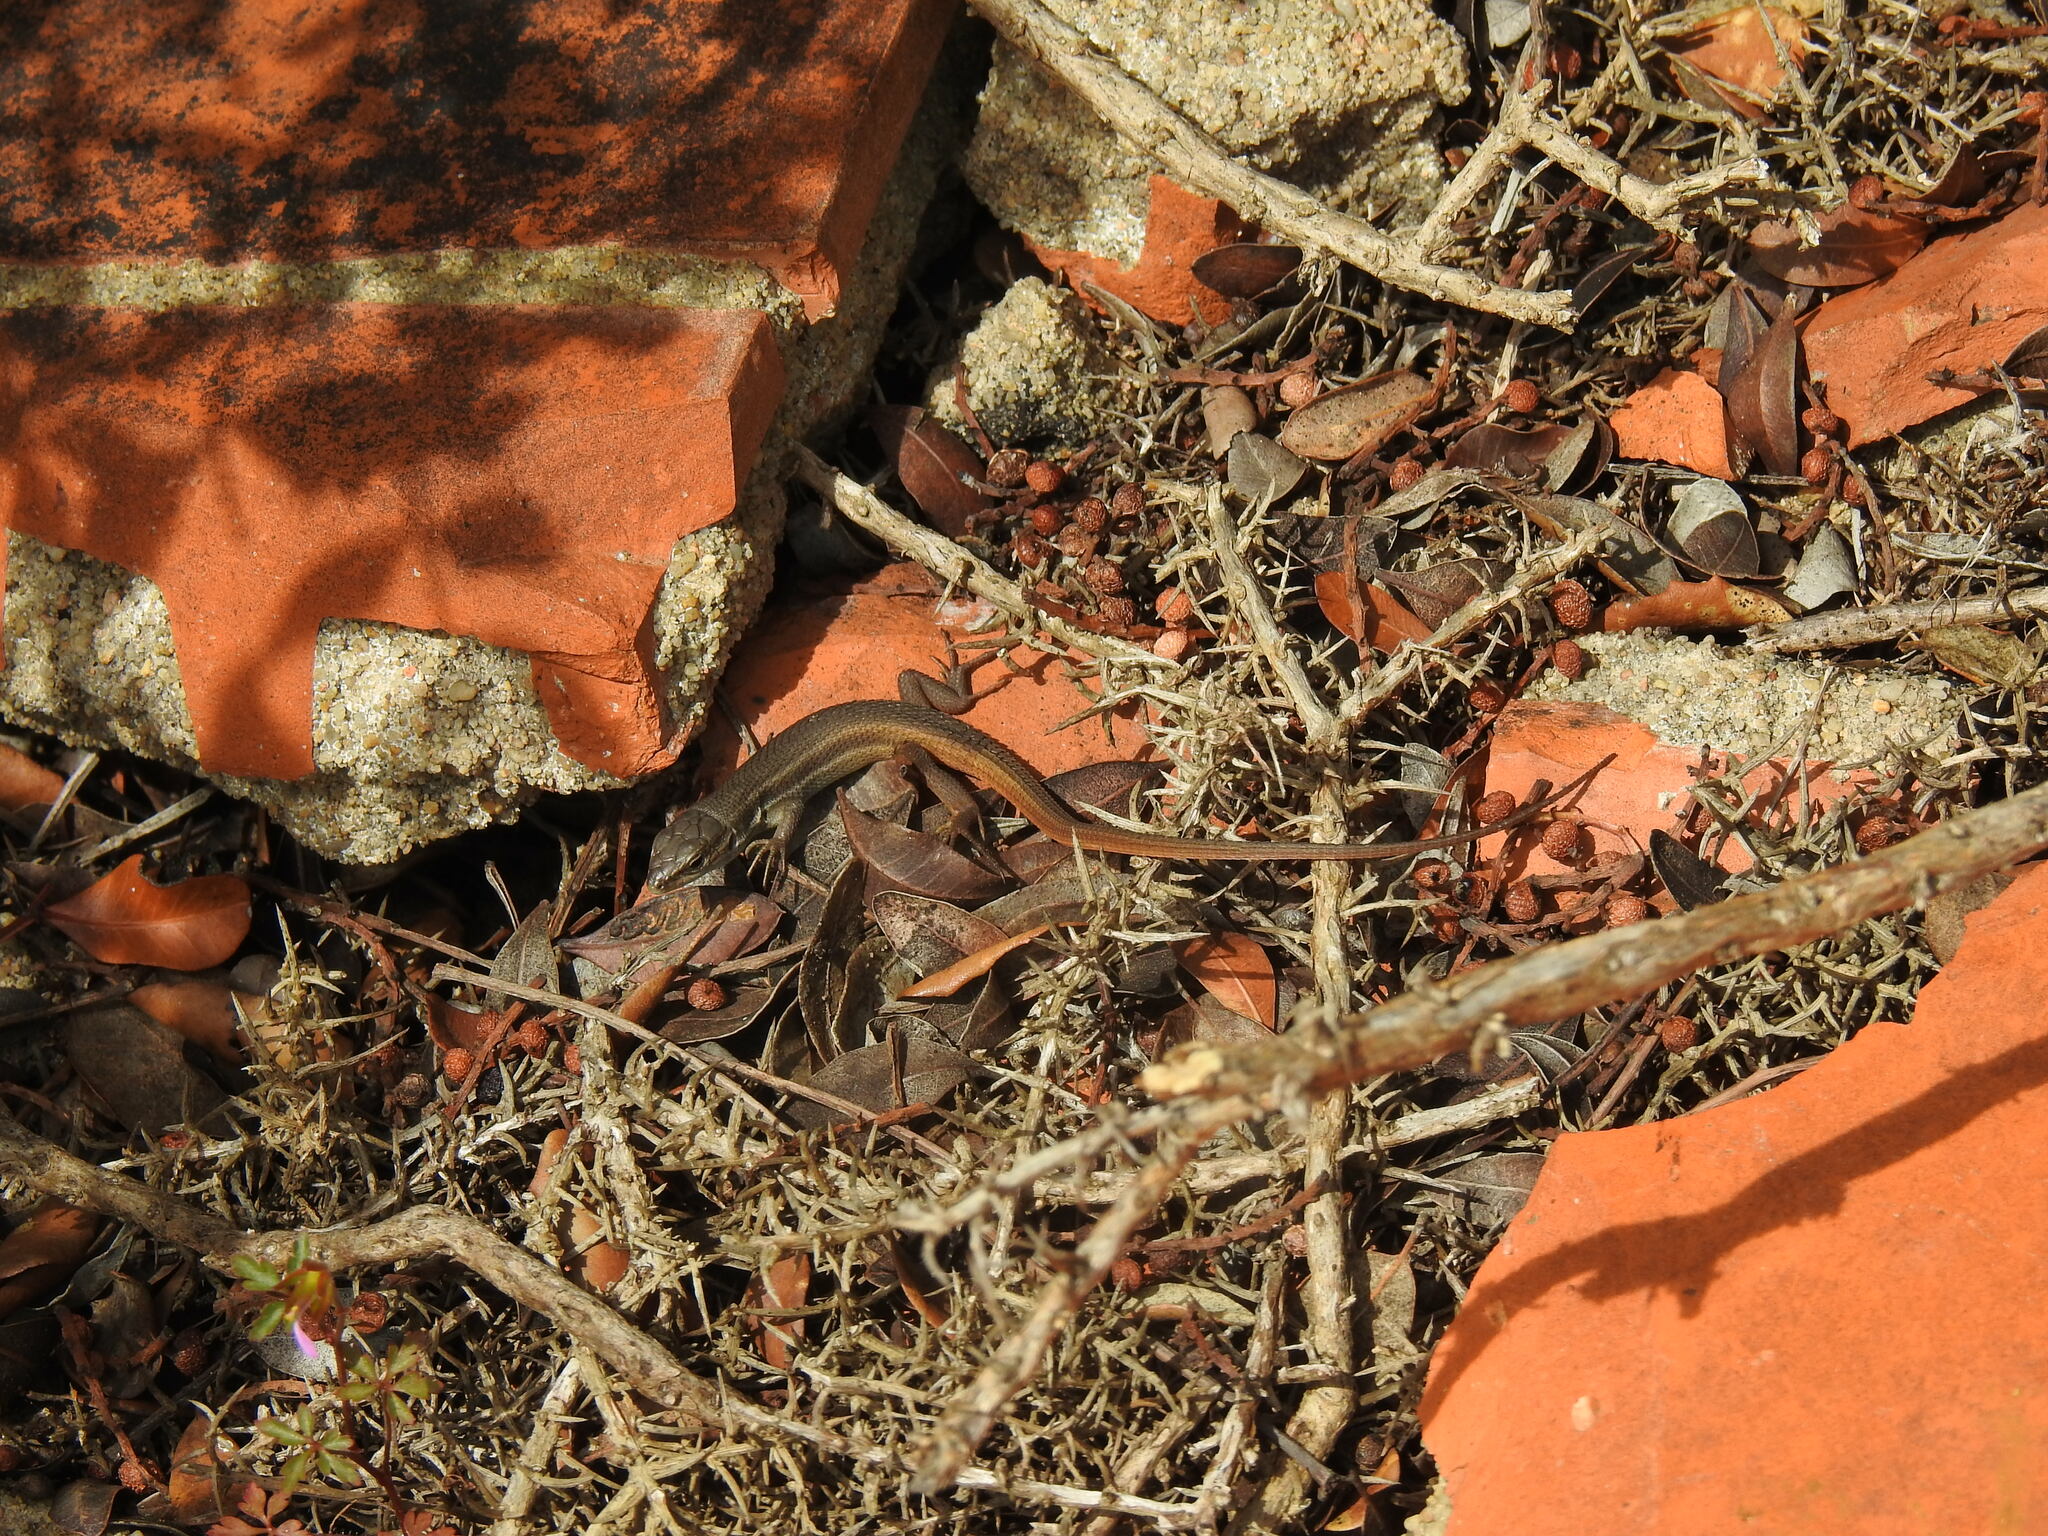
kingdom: Animalia
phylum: Chordata
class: Squamata
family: Lacertidae
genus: Psammodromus
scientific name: Psammodromus algirus
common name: Algerian psammodromus
